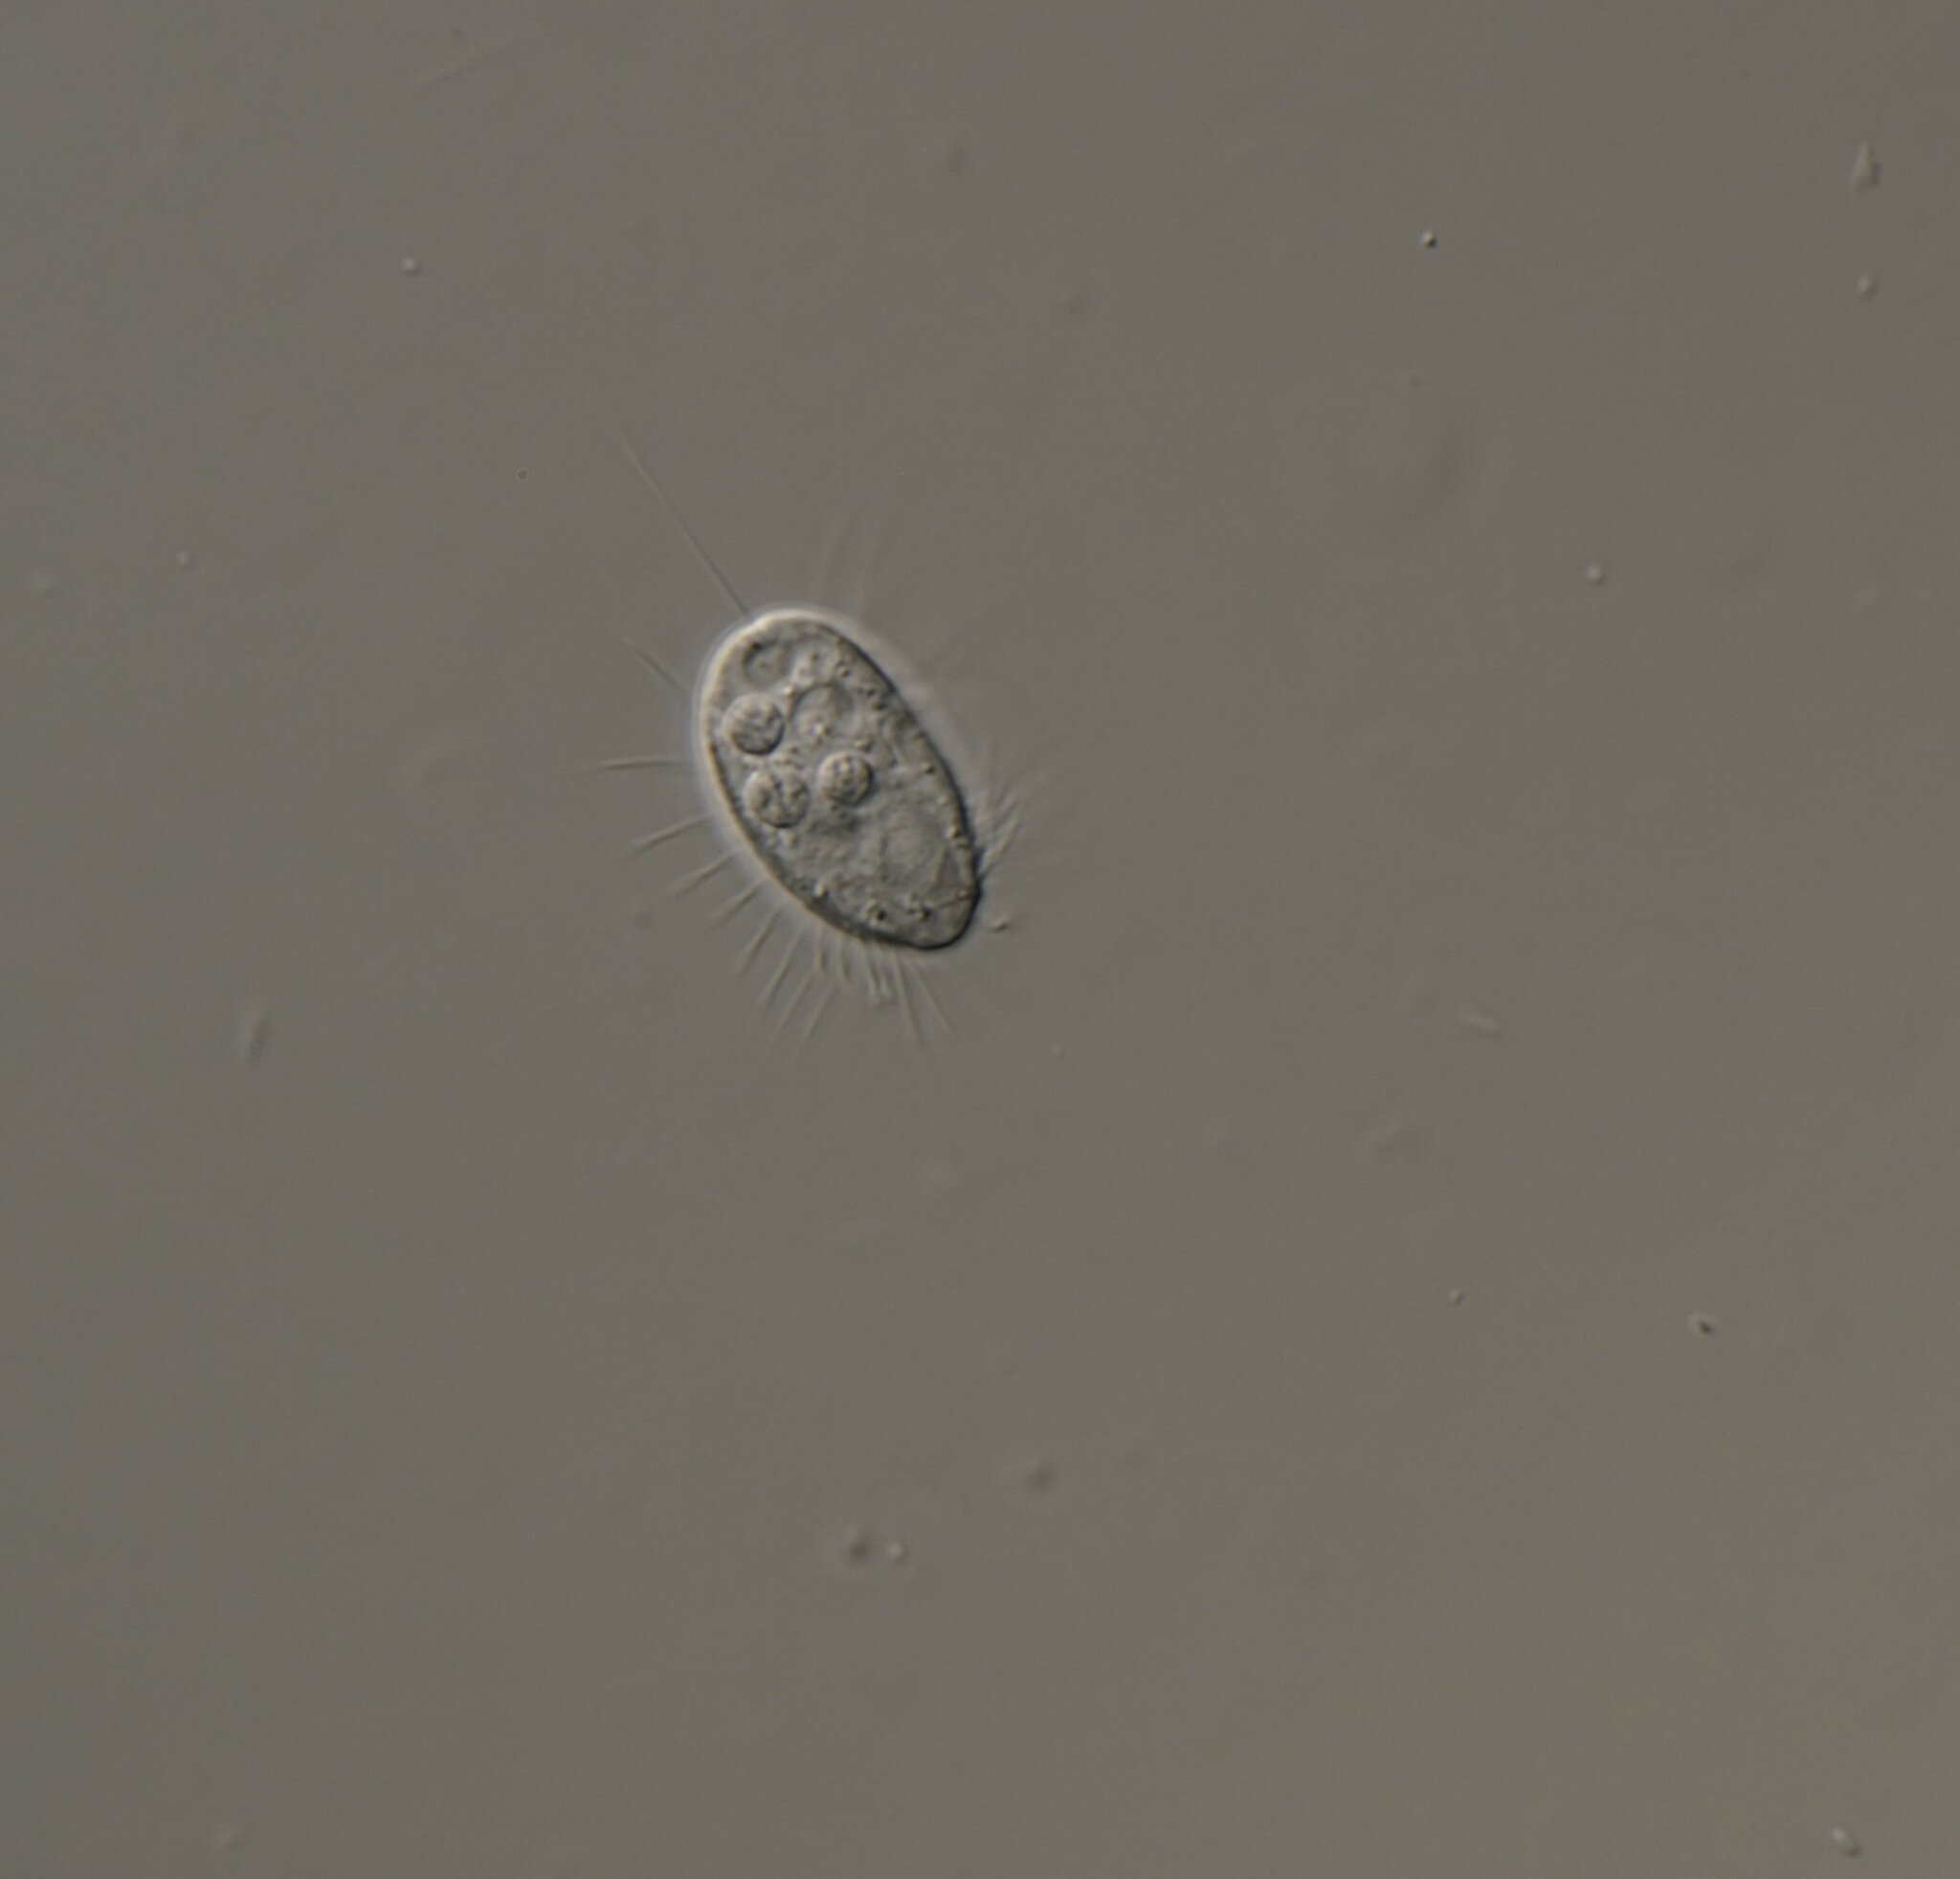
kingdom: Chromista
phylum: Ciliophora
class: Oligohymenophorea
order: Scuticociliatida
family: Cyclidiidae
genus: Cyclidium
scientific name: Cyclidium glaucoma
